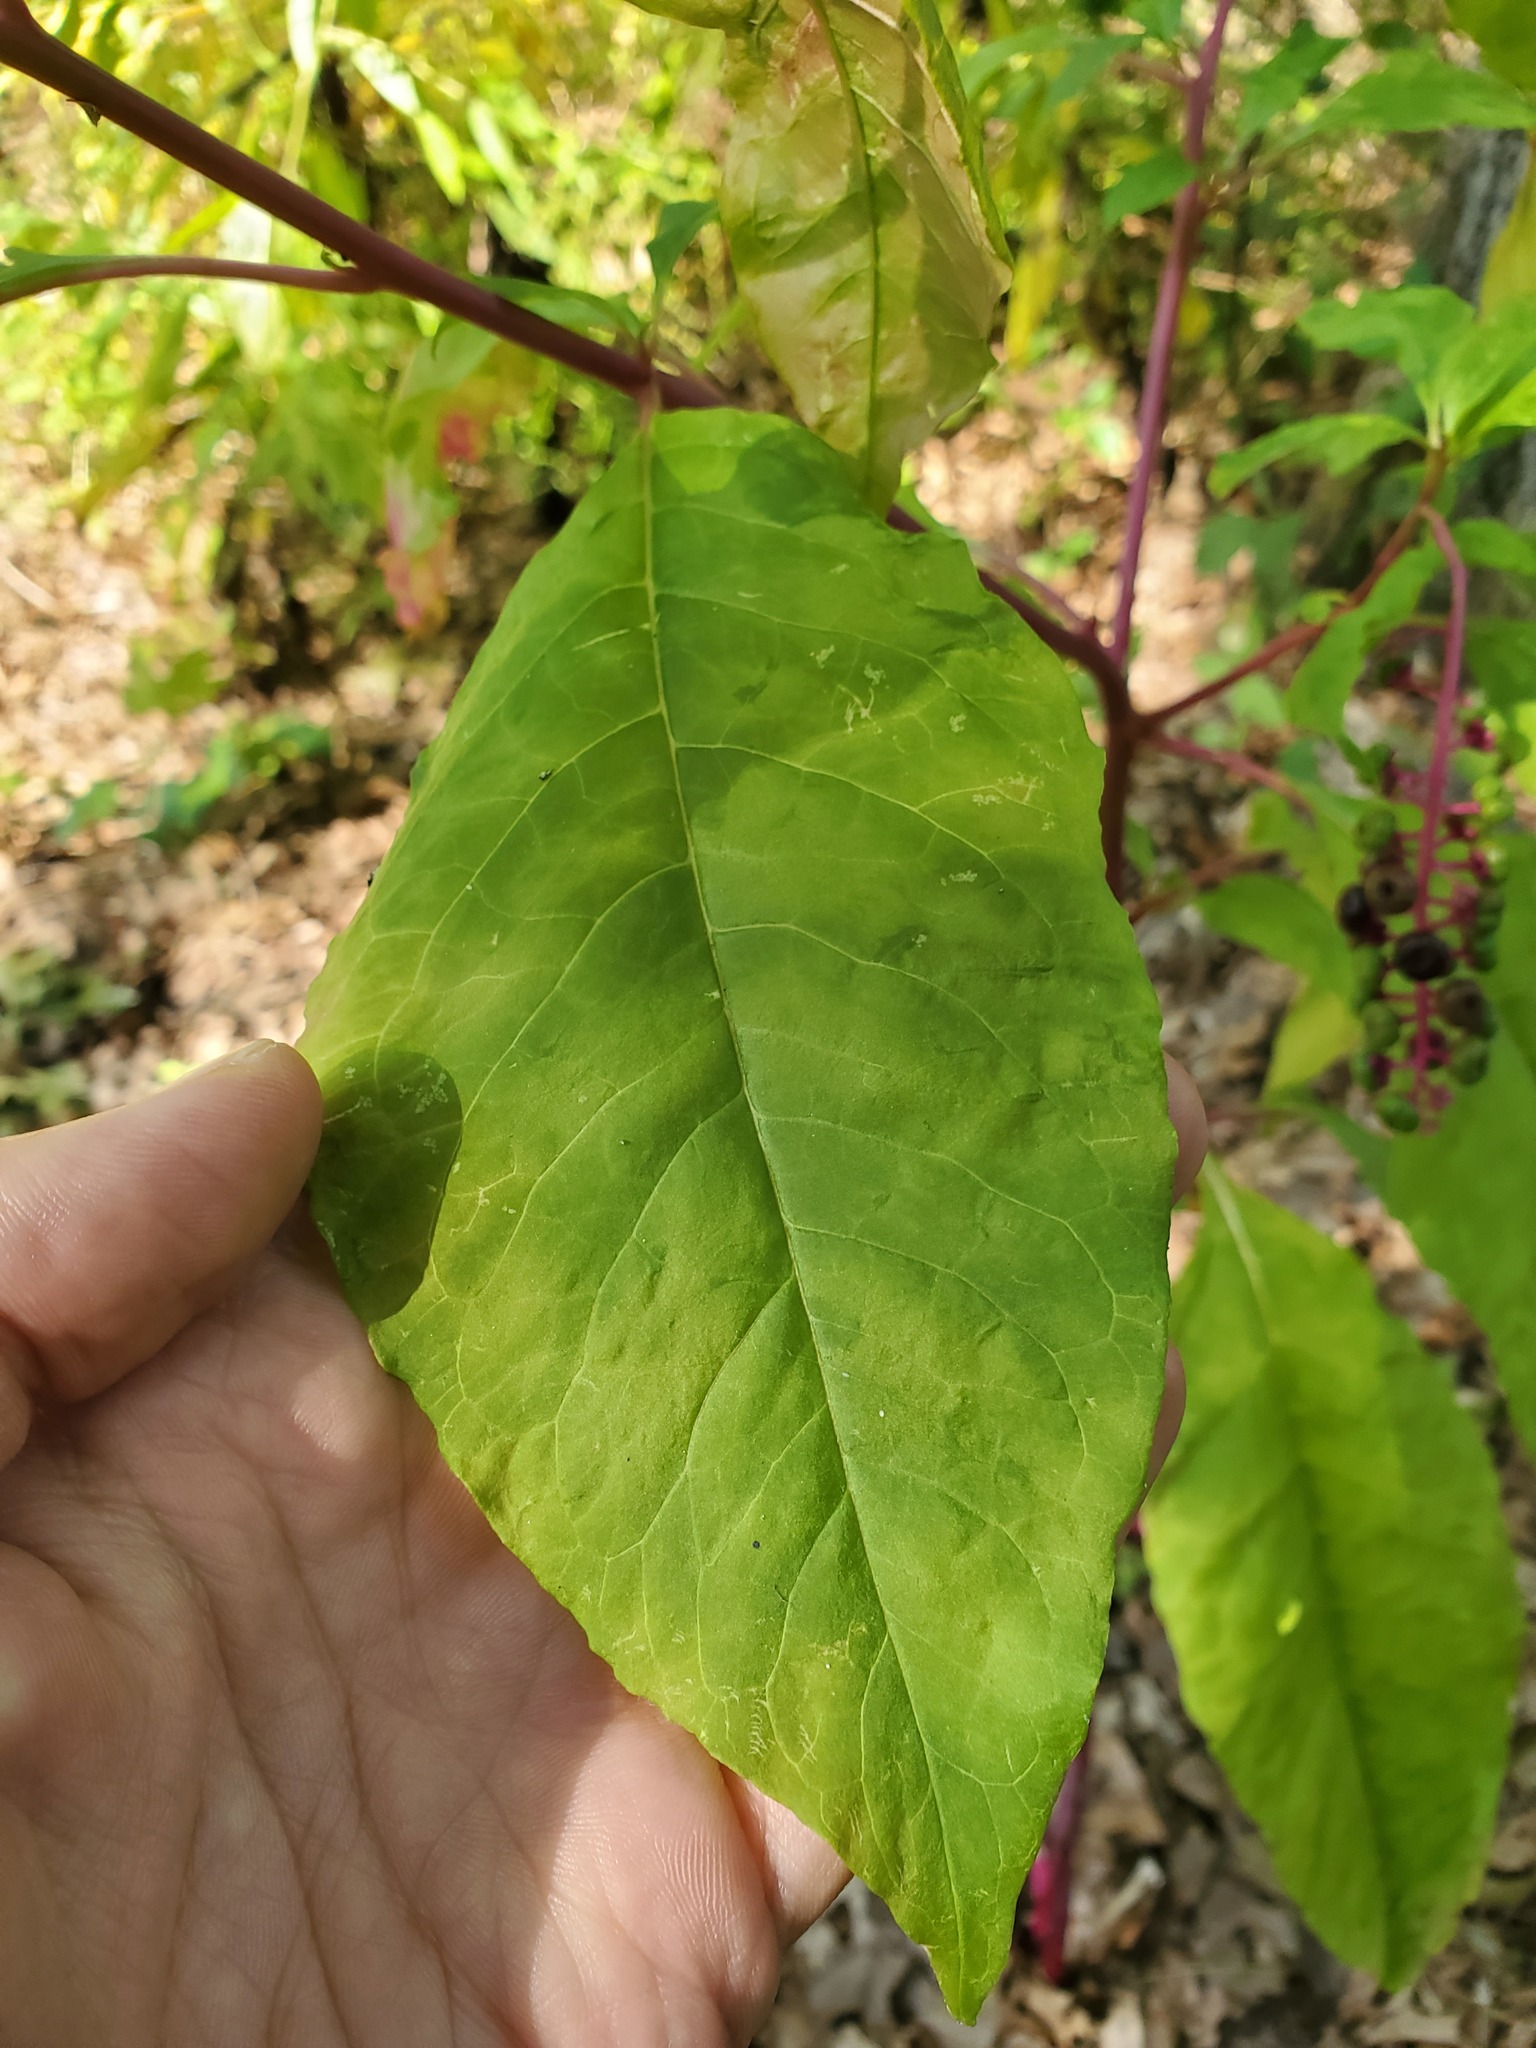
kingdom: Plantae
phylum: Tracheophyta
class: Magnoliopsida
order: Caryophyllales
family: Phytolaccaceae
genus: Phytolacca
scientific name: Phytolacca americana
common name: American pokeweed
